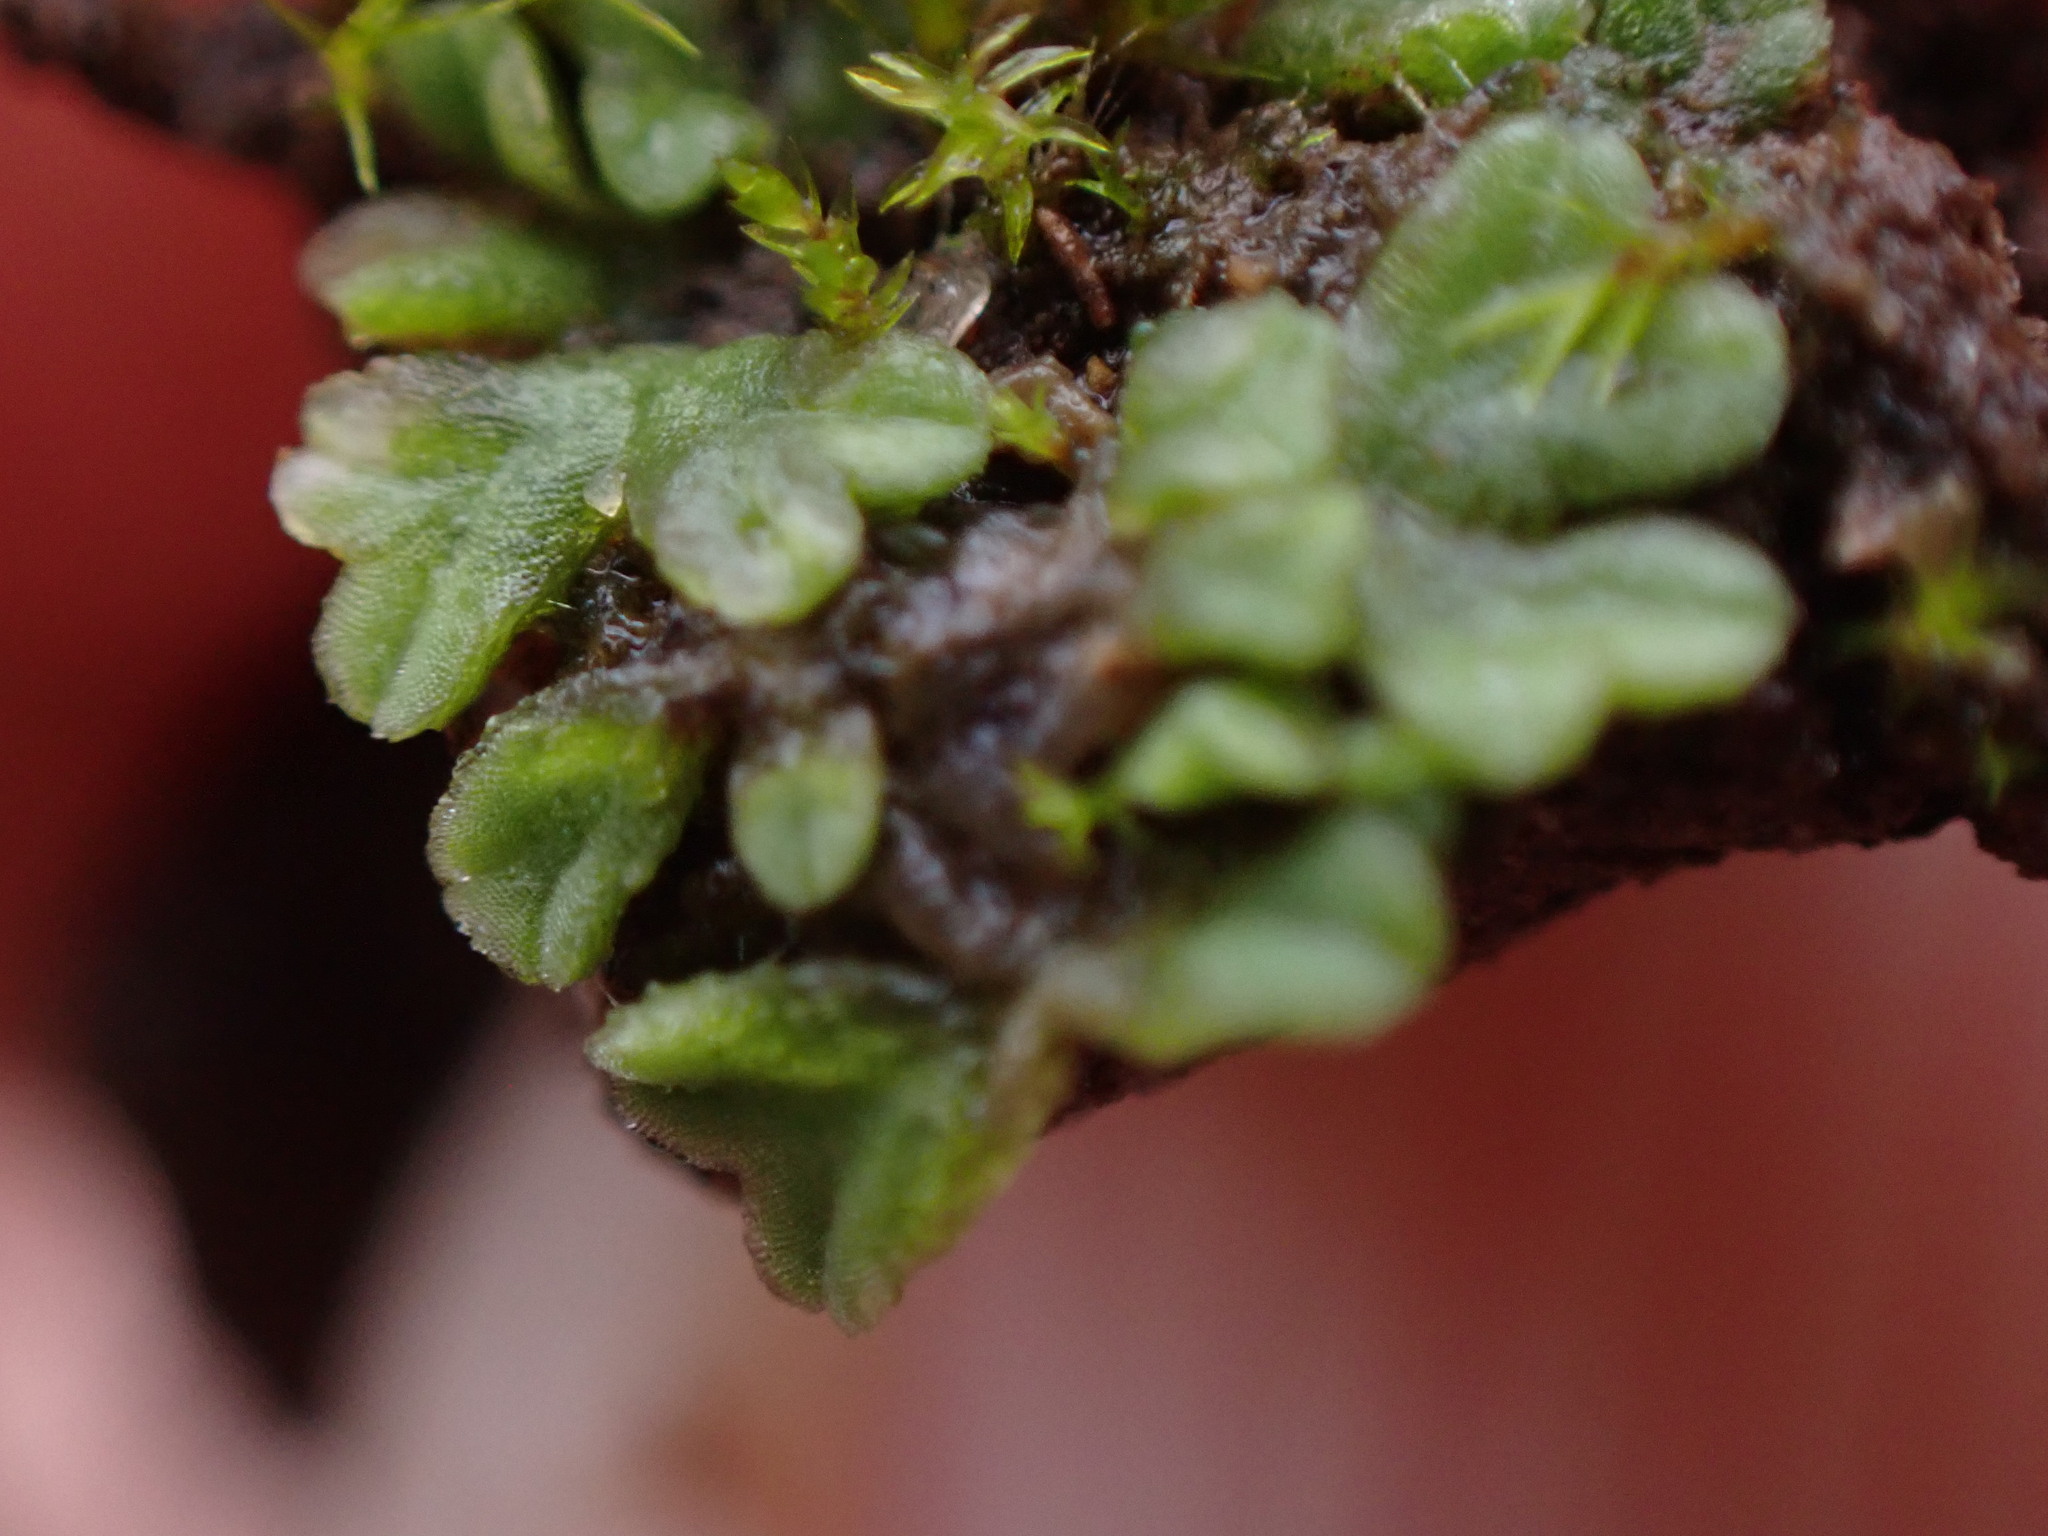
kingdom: Plantae
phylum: Marchantiophyta
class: Marchantiopsida
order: Marchantiales
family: Ricciaceae
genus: Riccia
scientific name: Riccia sorocarpa
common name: Common crystalwort
